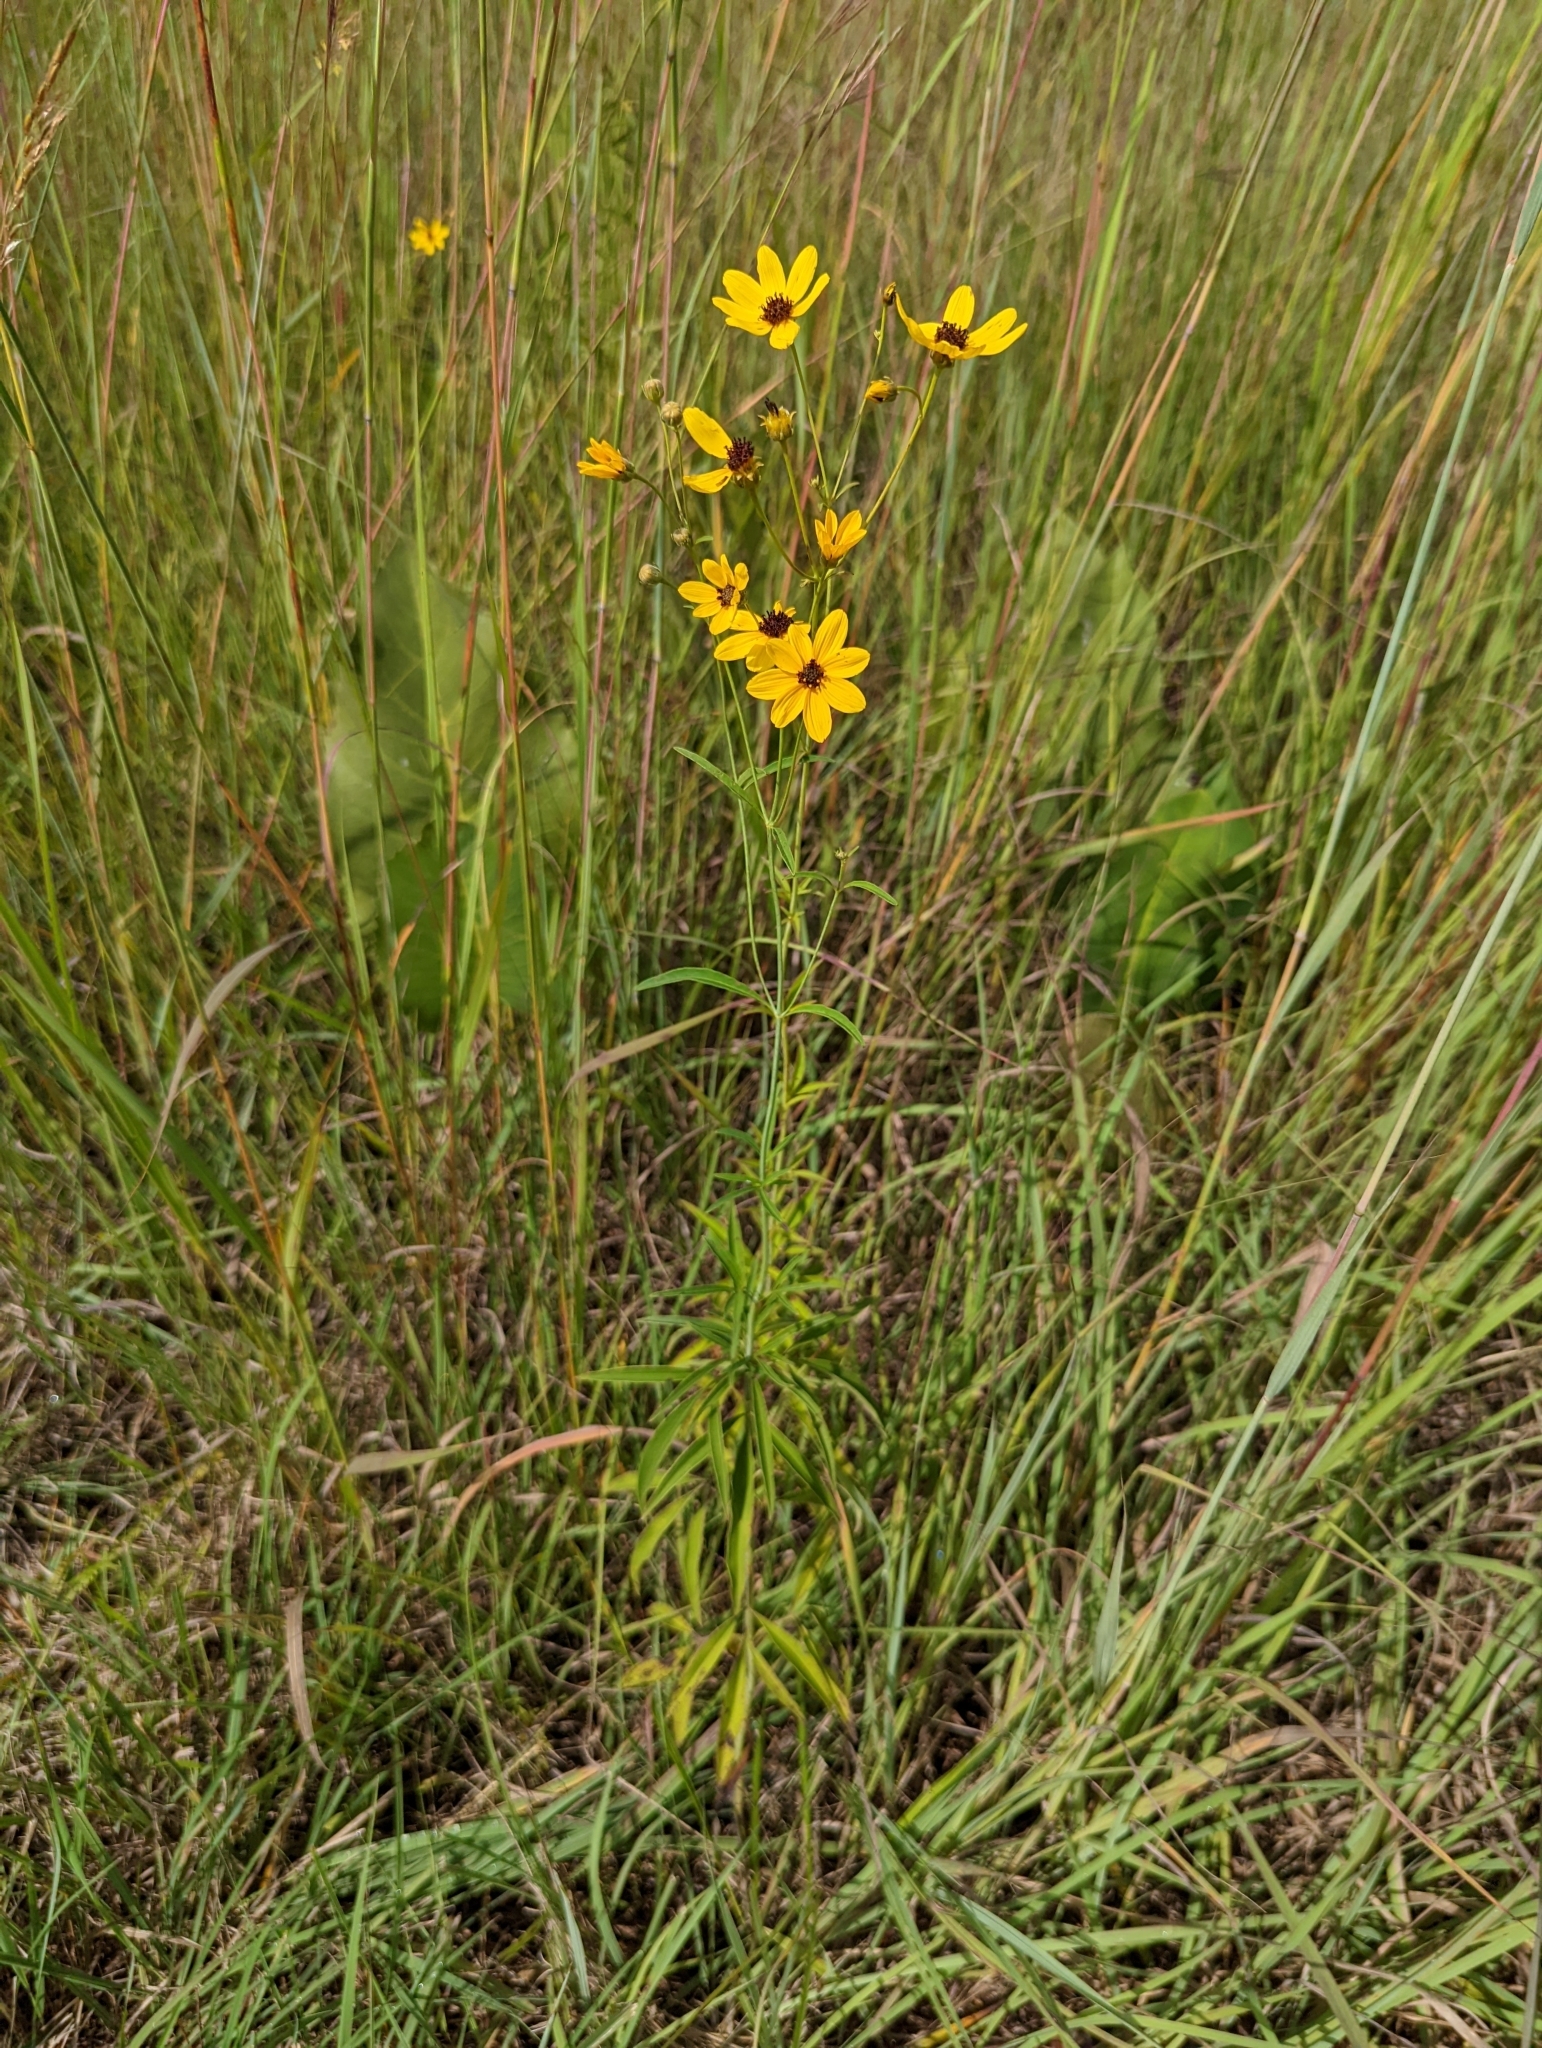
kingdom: Plantae
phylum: Tracheophyta
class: Magnoliopsida
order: Asterales
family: Asteraceae
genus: Coreopsis
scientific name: Coreopsis tripteris
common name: Tall coreopsis
